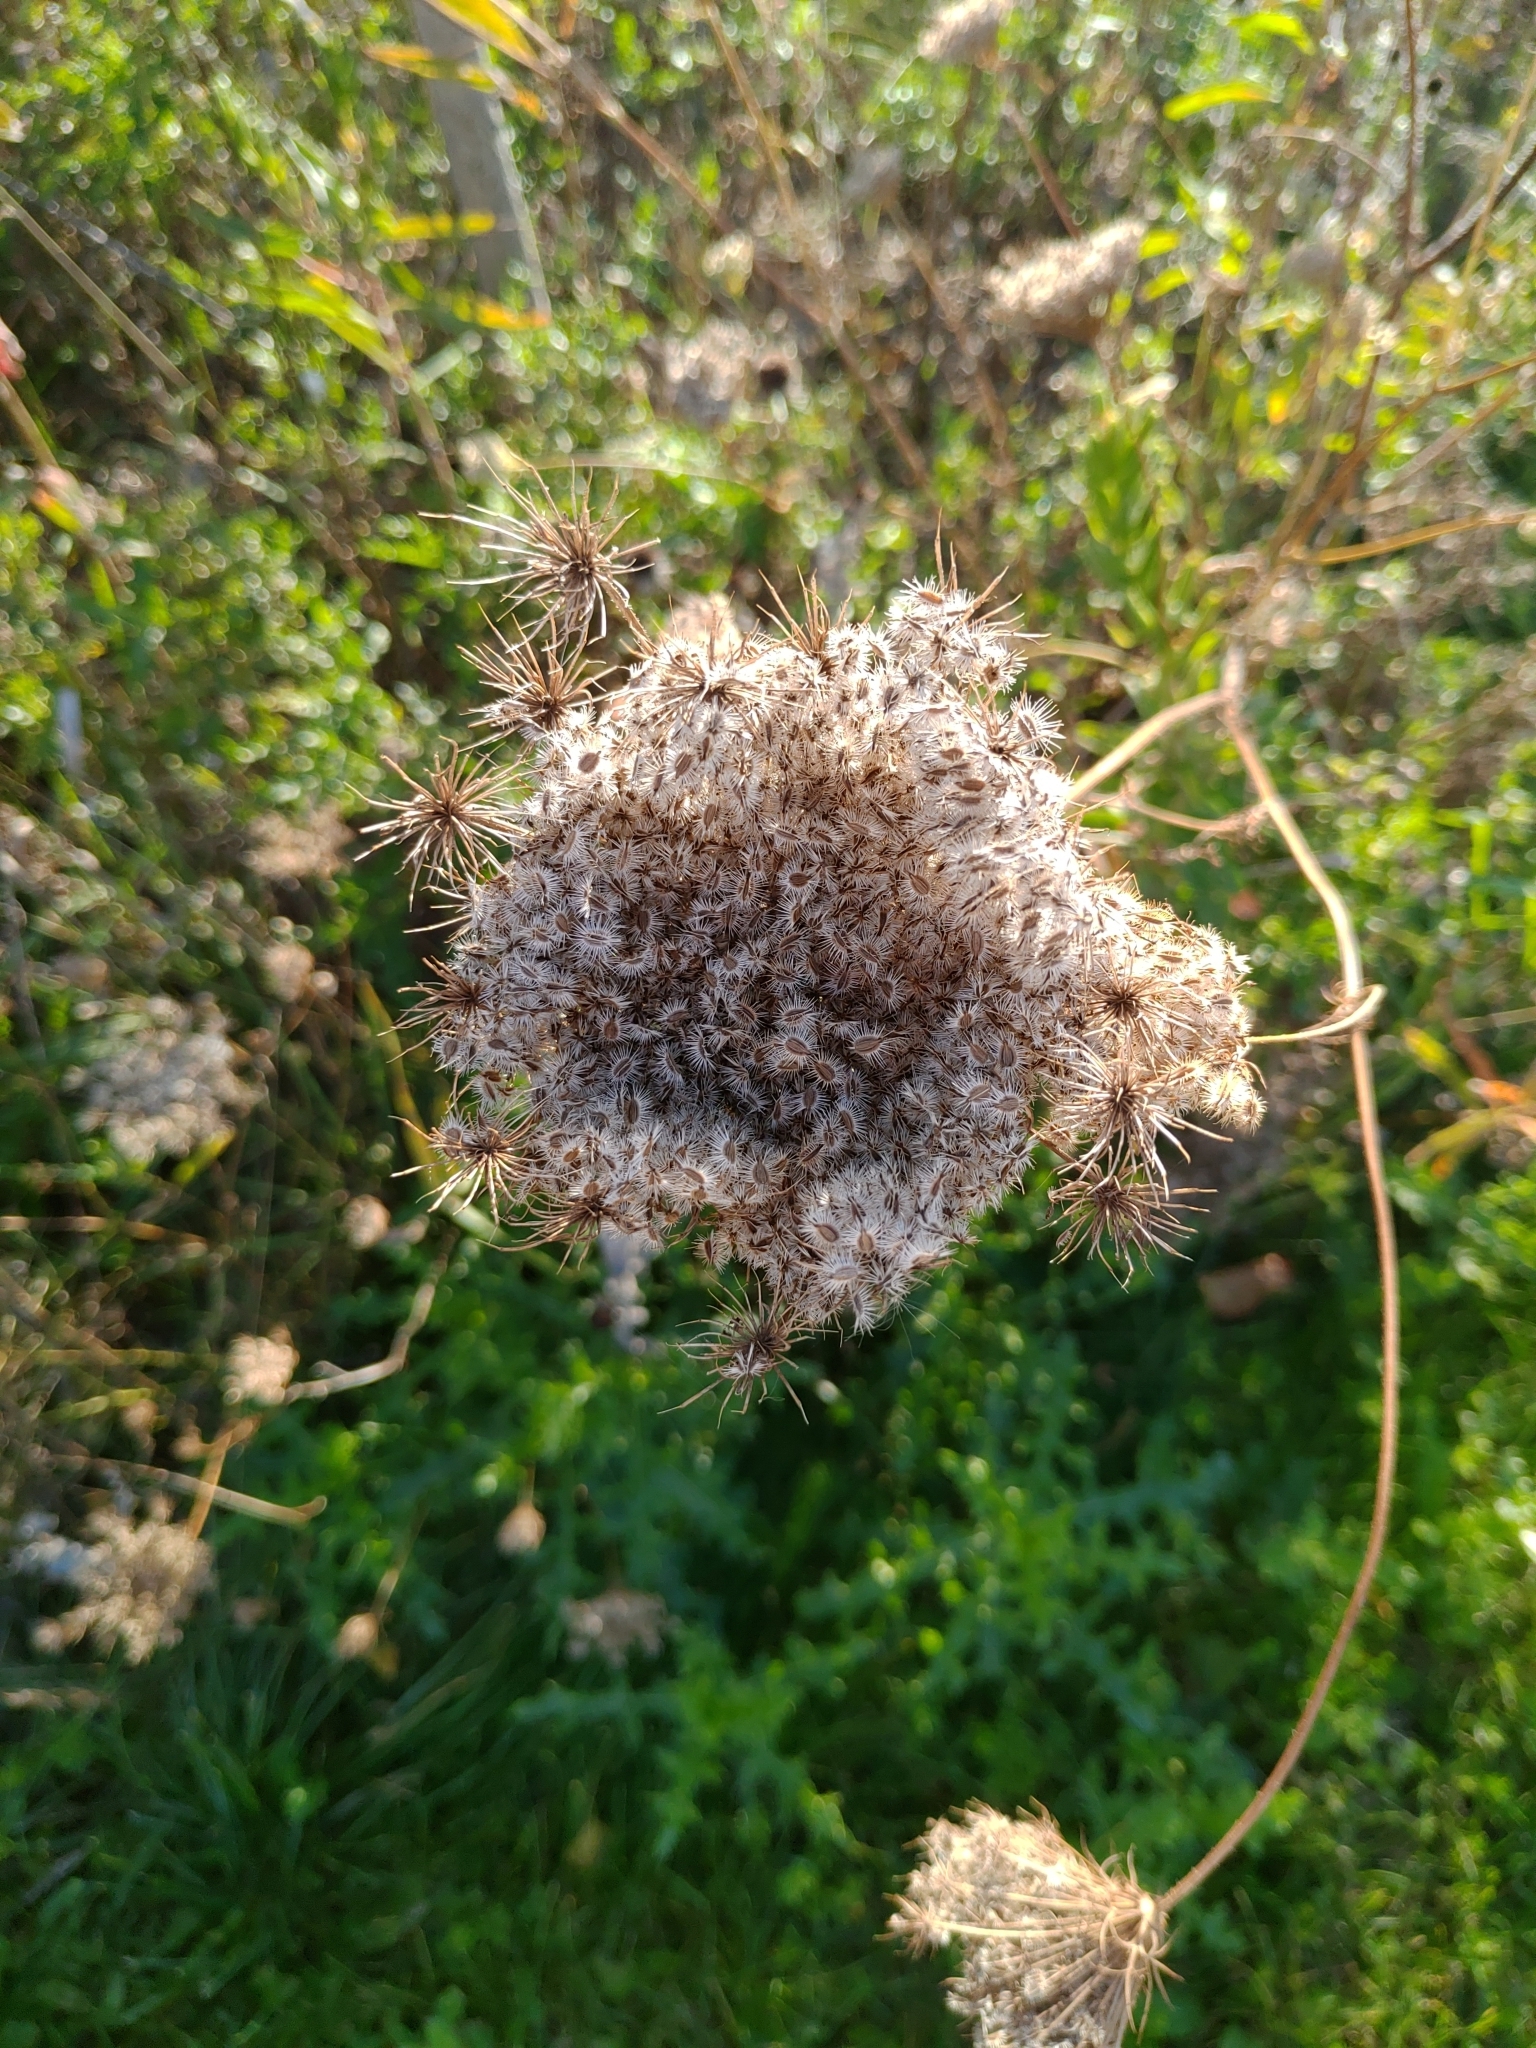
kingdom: Plantae
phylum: Tracheophyta
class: Magnoliopsida
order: Apiales
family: Apiaceae
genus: Daucus
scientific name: Daucus carota
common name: Wild carrot
